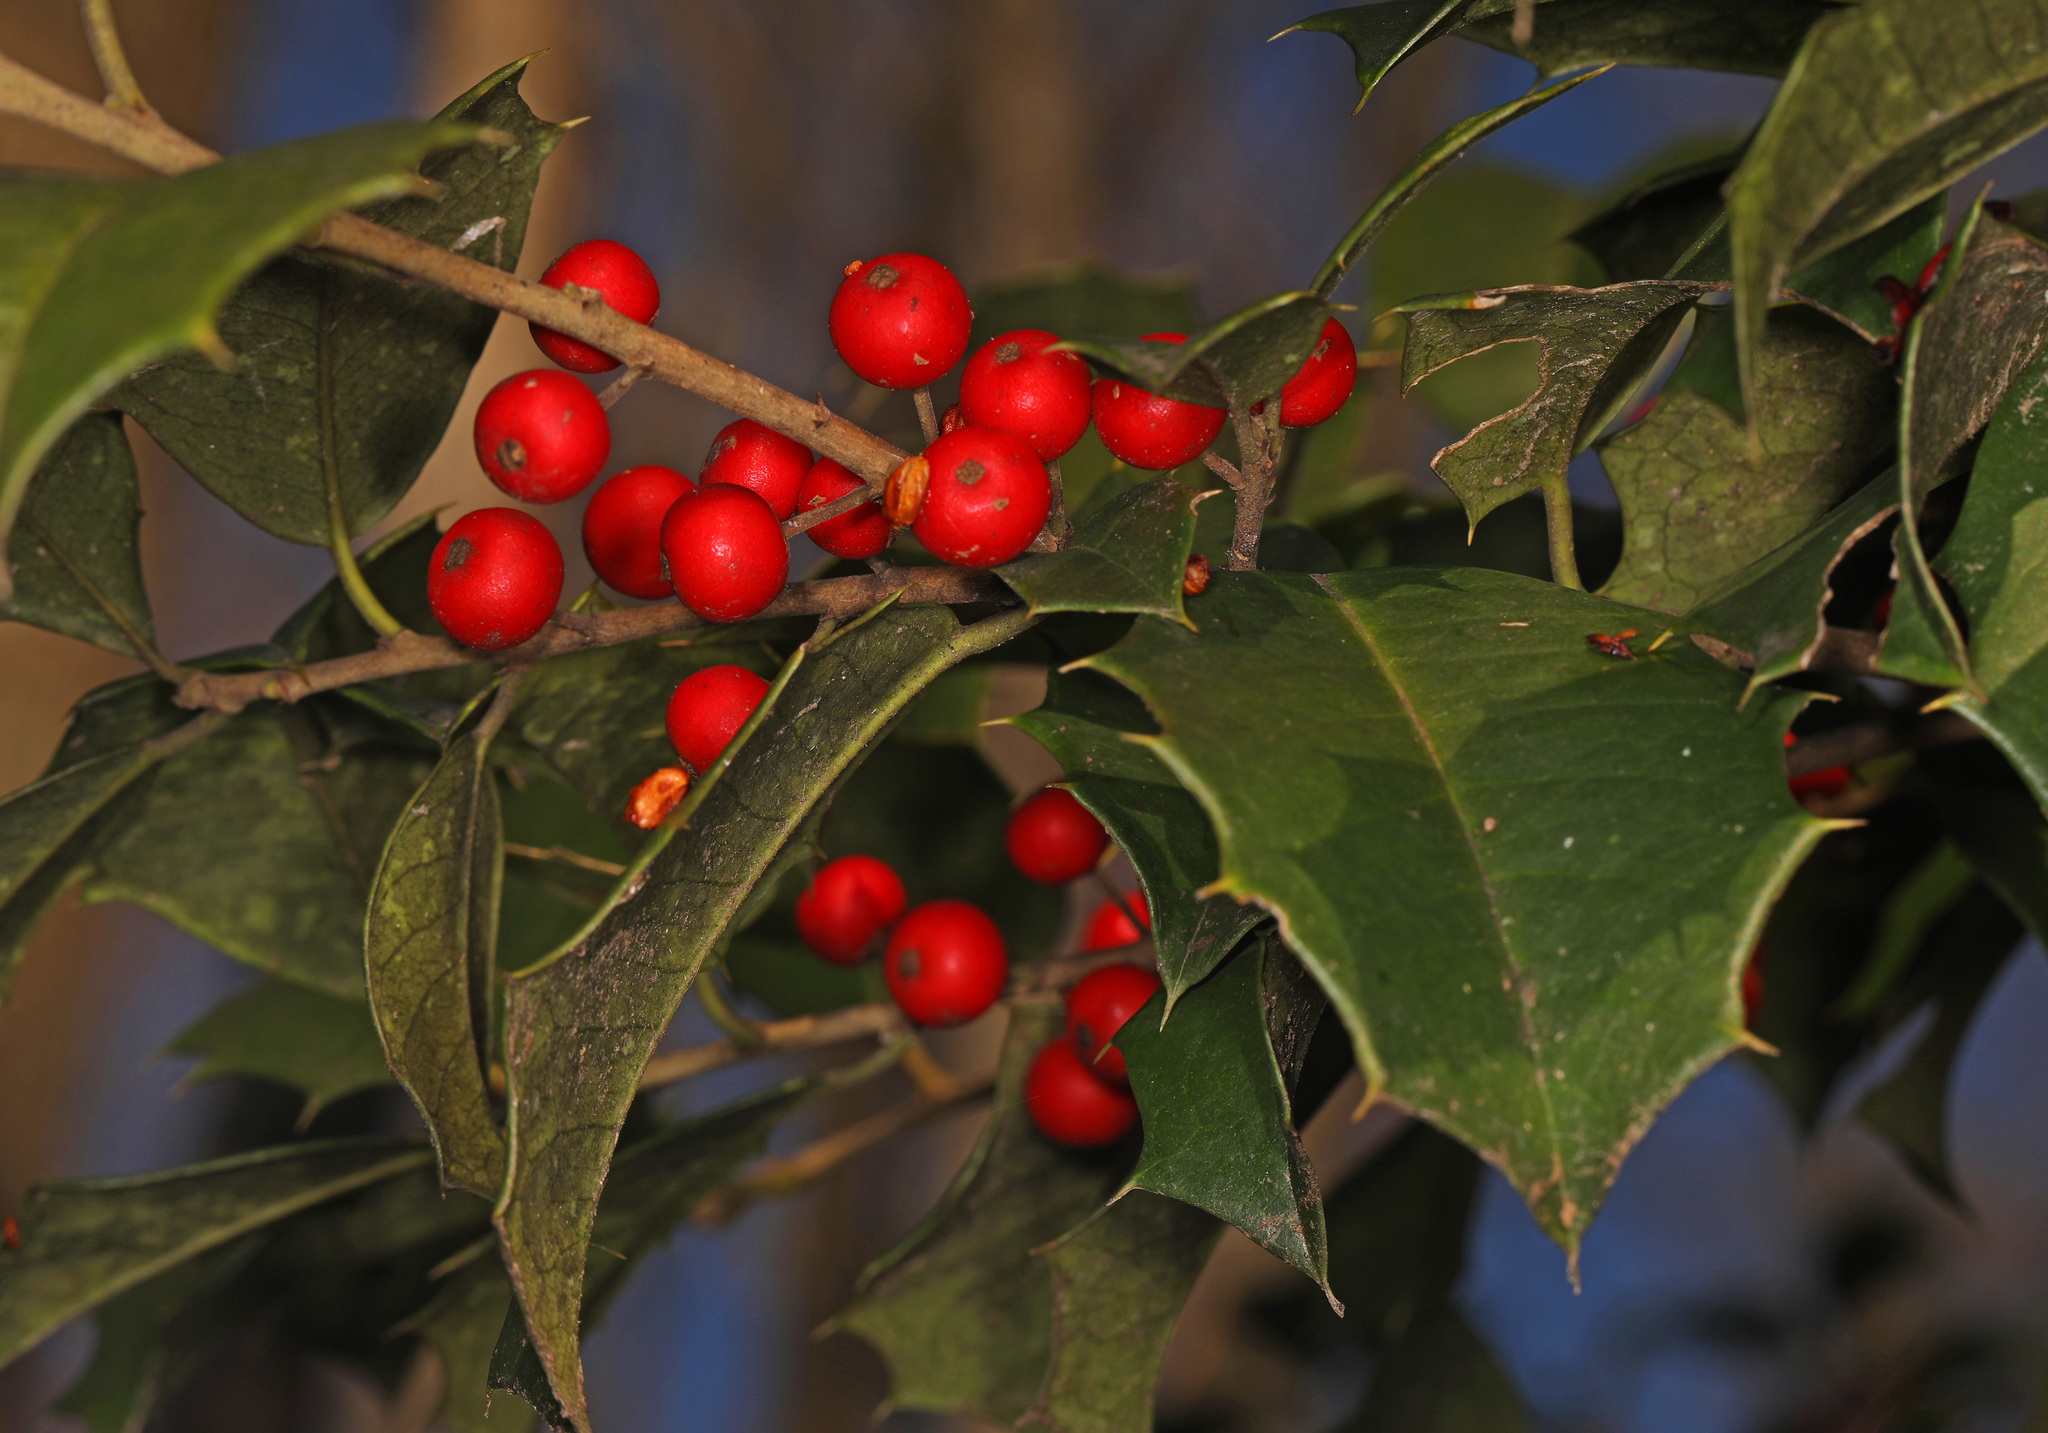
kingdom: Plantae
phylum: Tracheophyta
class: Magnoliopsida
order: Aquifoliales
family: Aquifoliaceae
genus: Ilex
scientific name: Ilex opaca
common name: American holly
